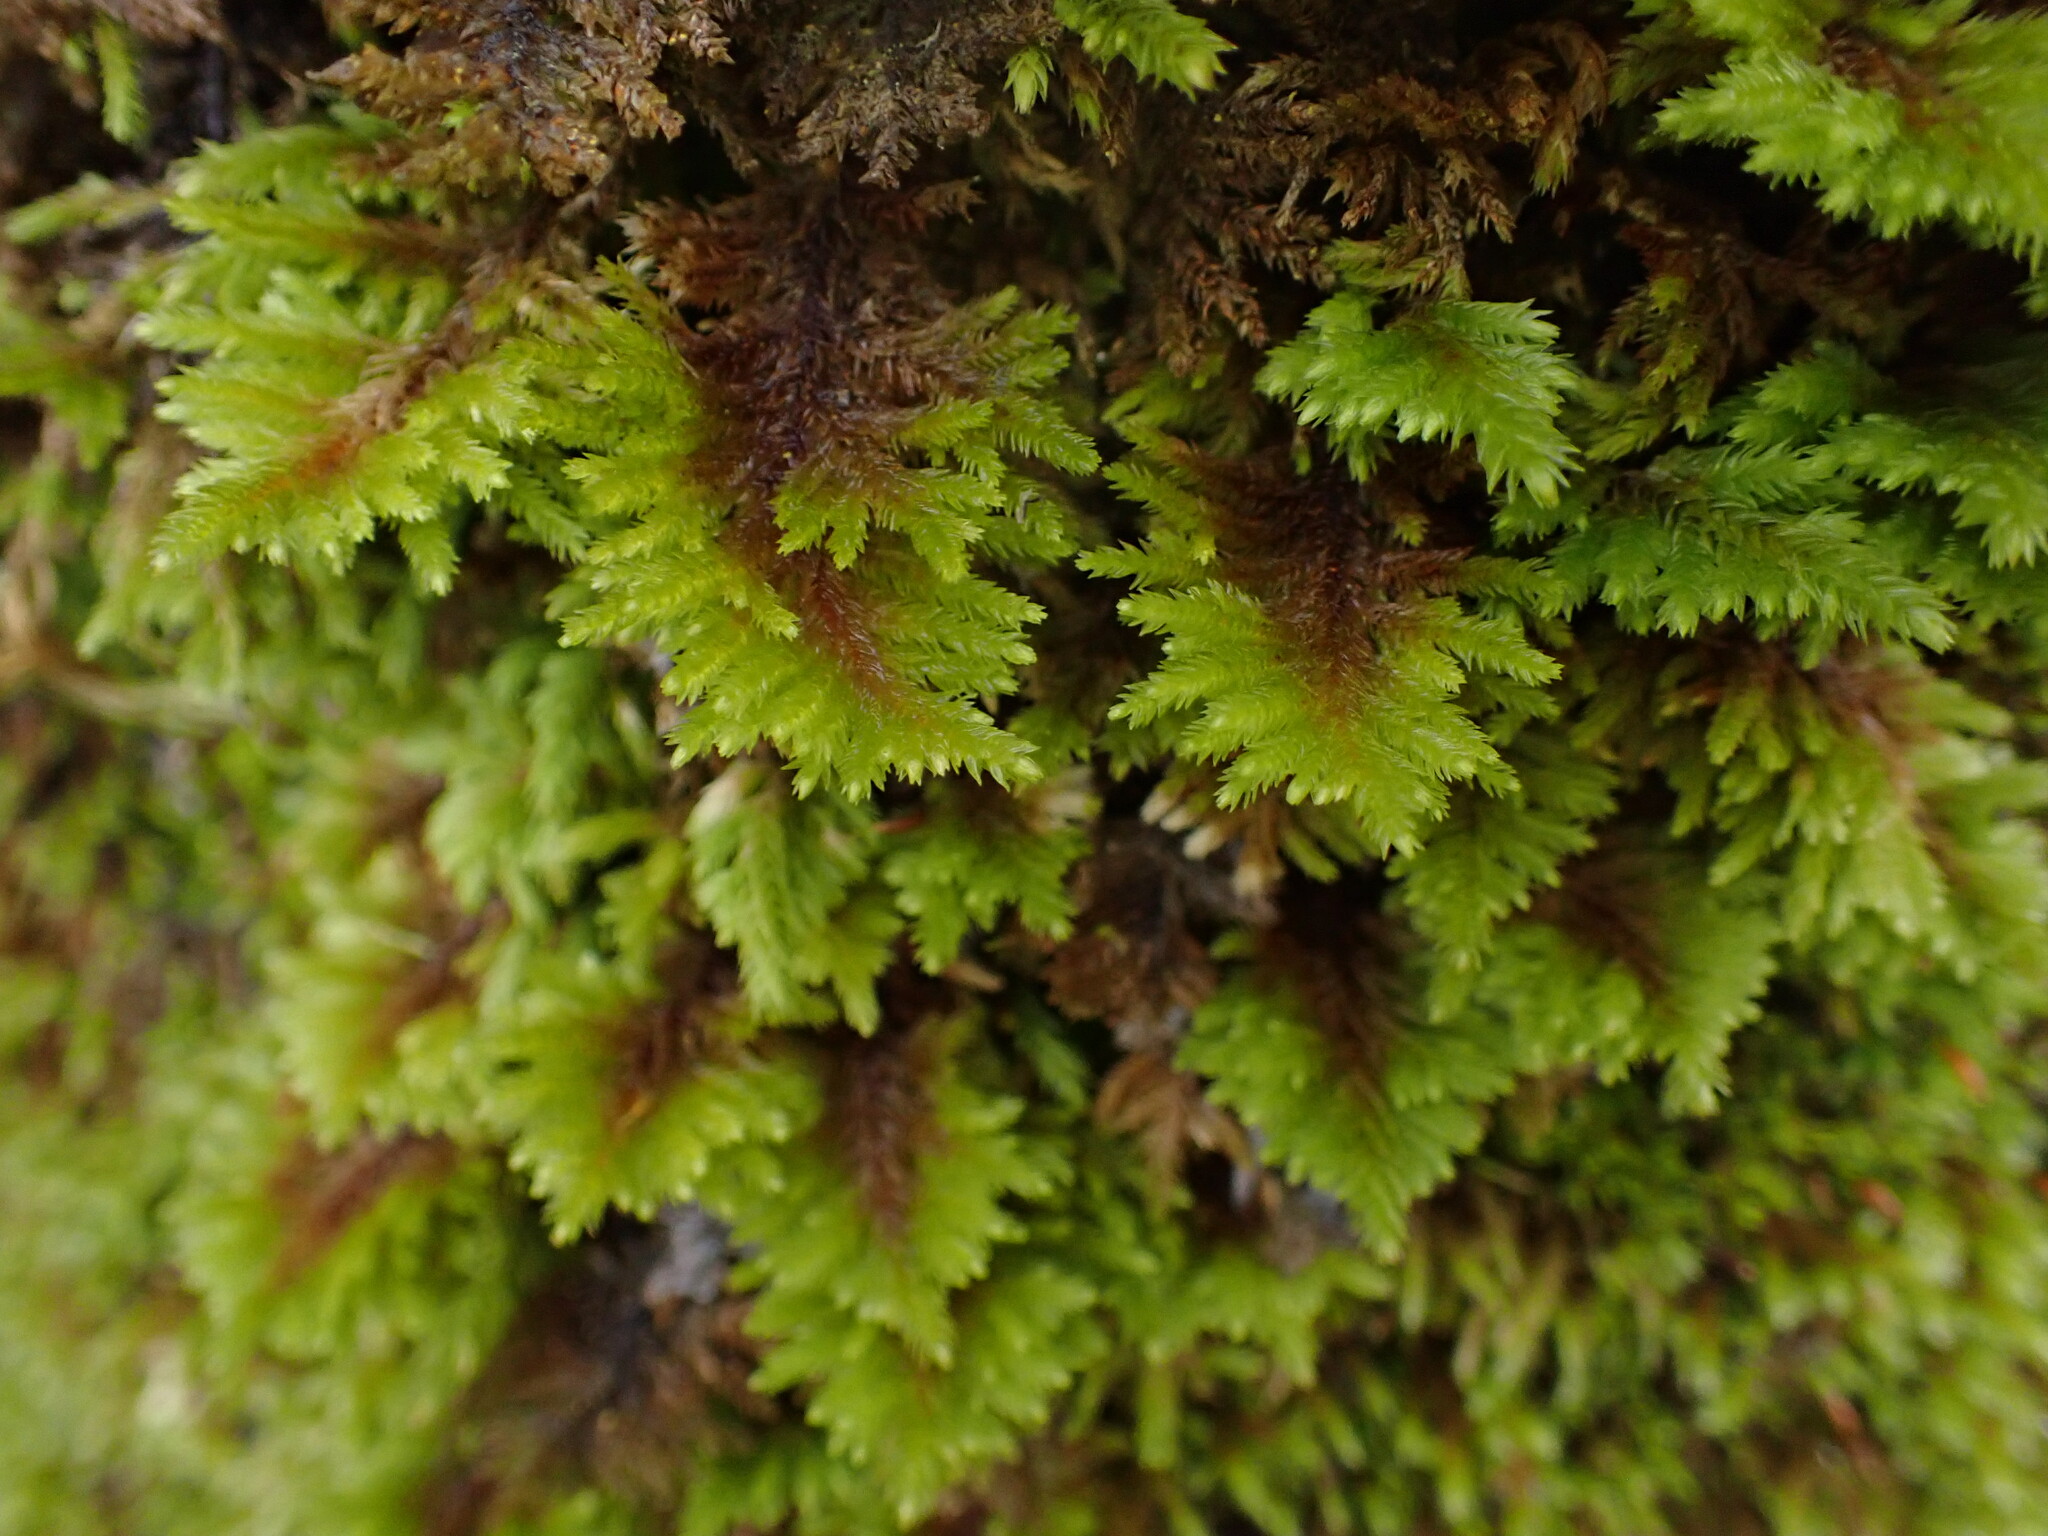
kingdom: Plantae
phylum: Bryophyta
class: Bryopsida
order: Hypnales
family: Cryphaeaceae
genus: Dendroalsia
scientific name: Dendroalsia abietina
